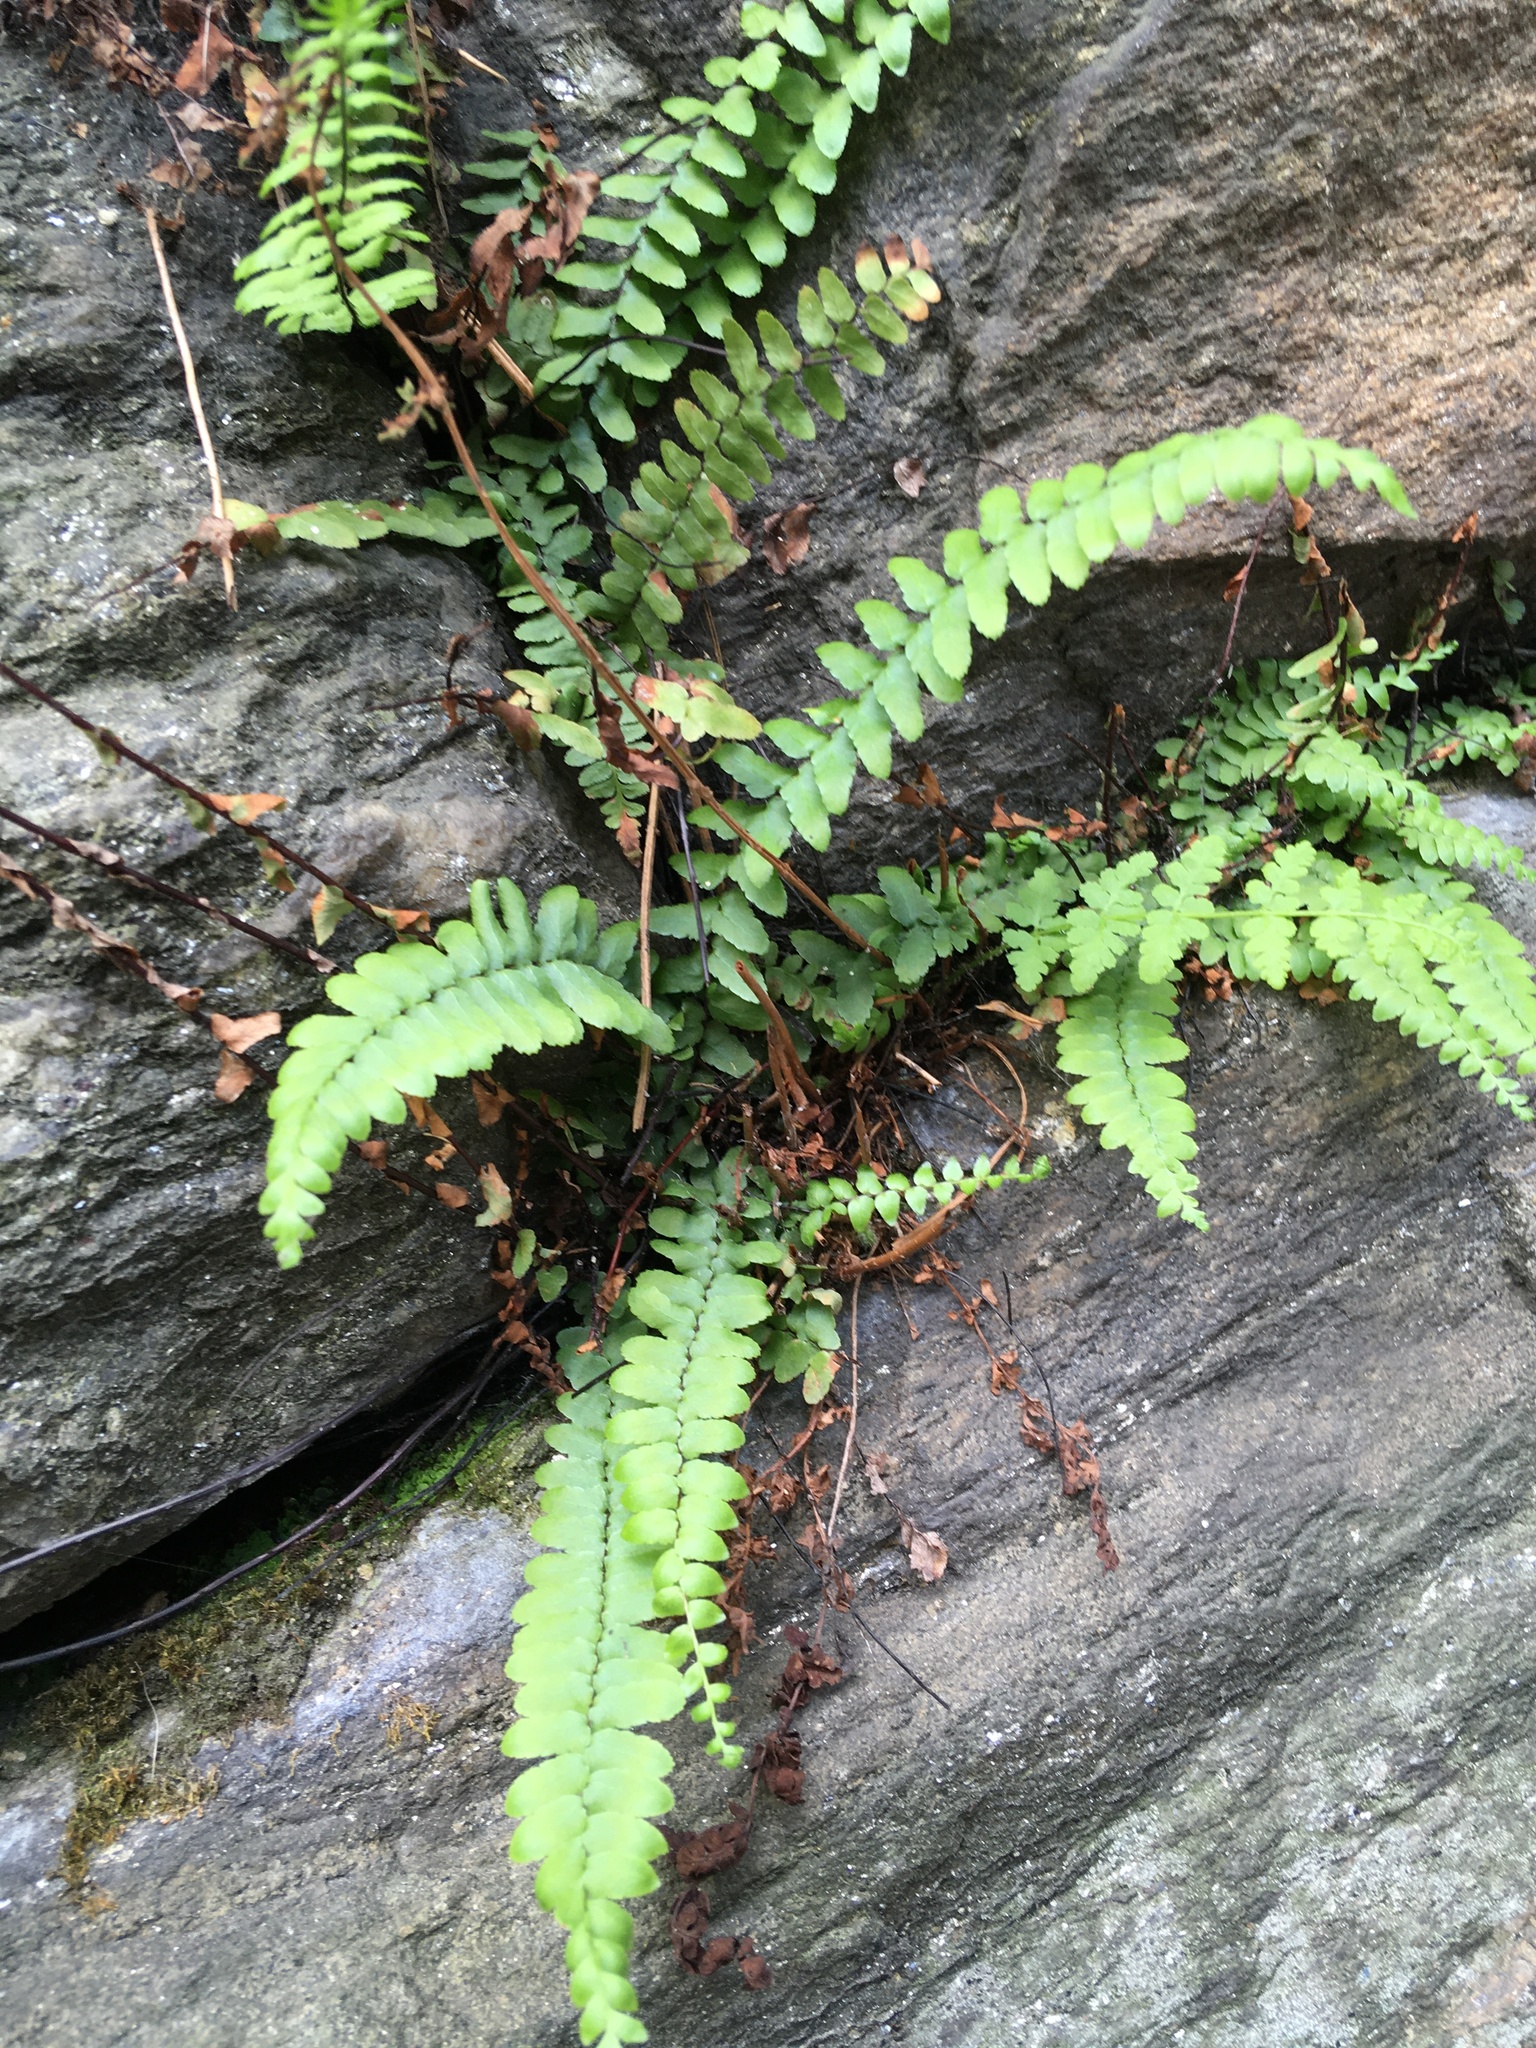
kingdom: Plantae
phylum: Tracheophyta
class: Polypodiopsida
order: Polypodiales
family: Aspleniaceae
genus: Asplenium
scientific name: Asplenium platyneuron
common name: Ebony spleenwort
